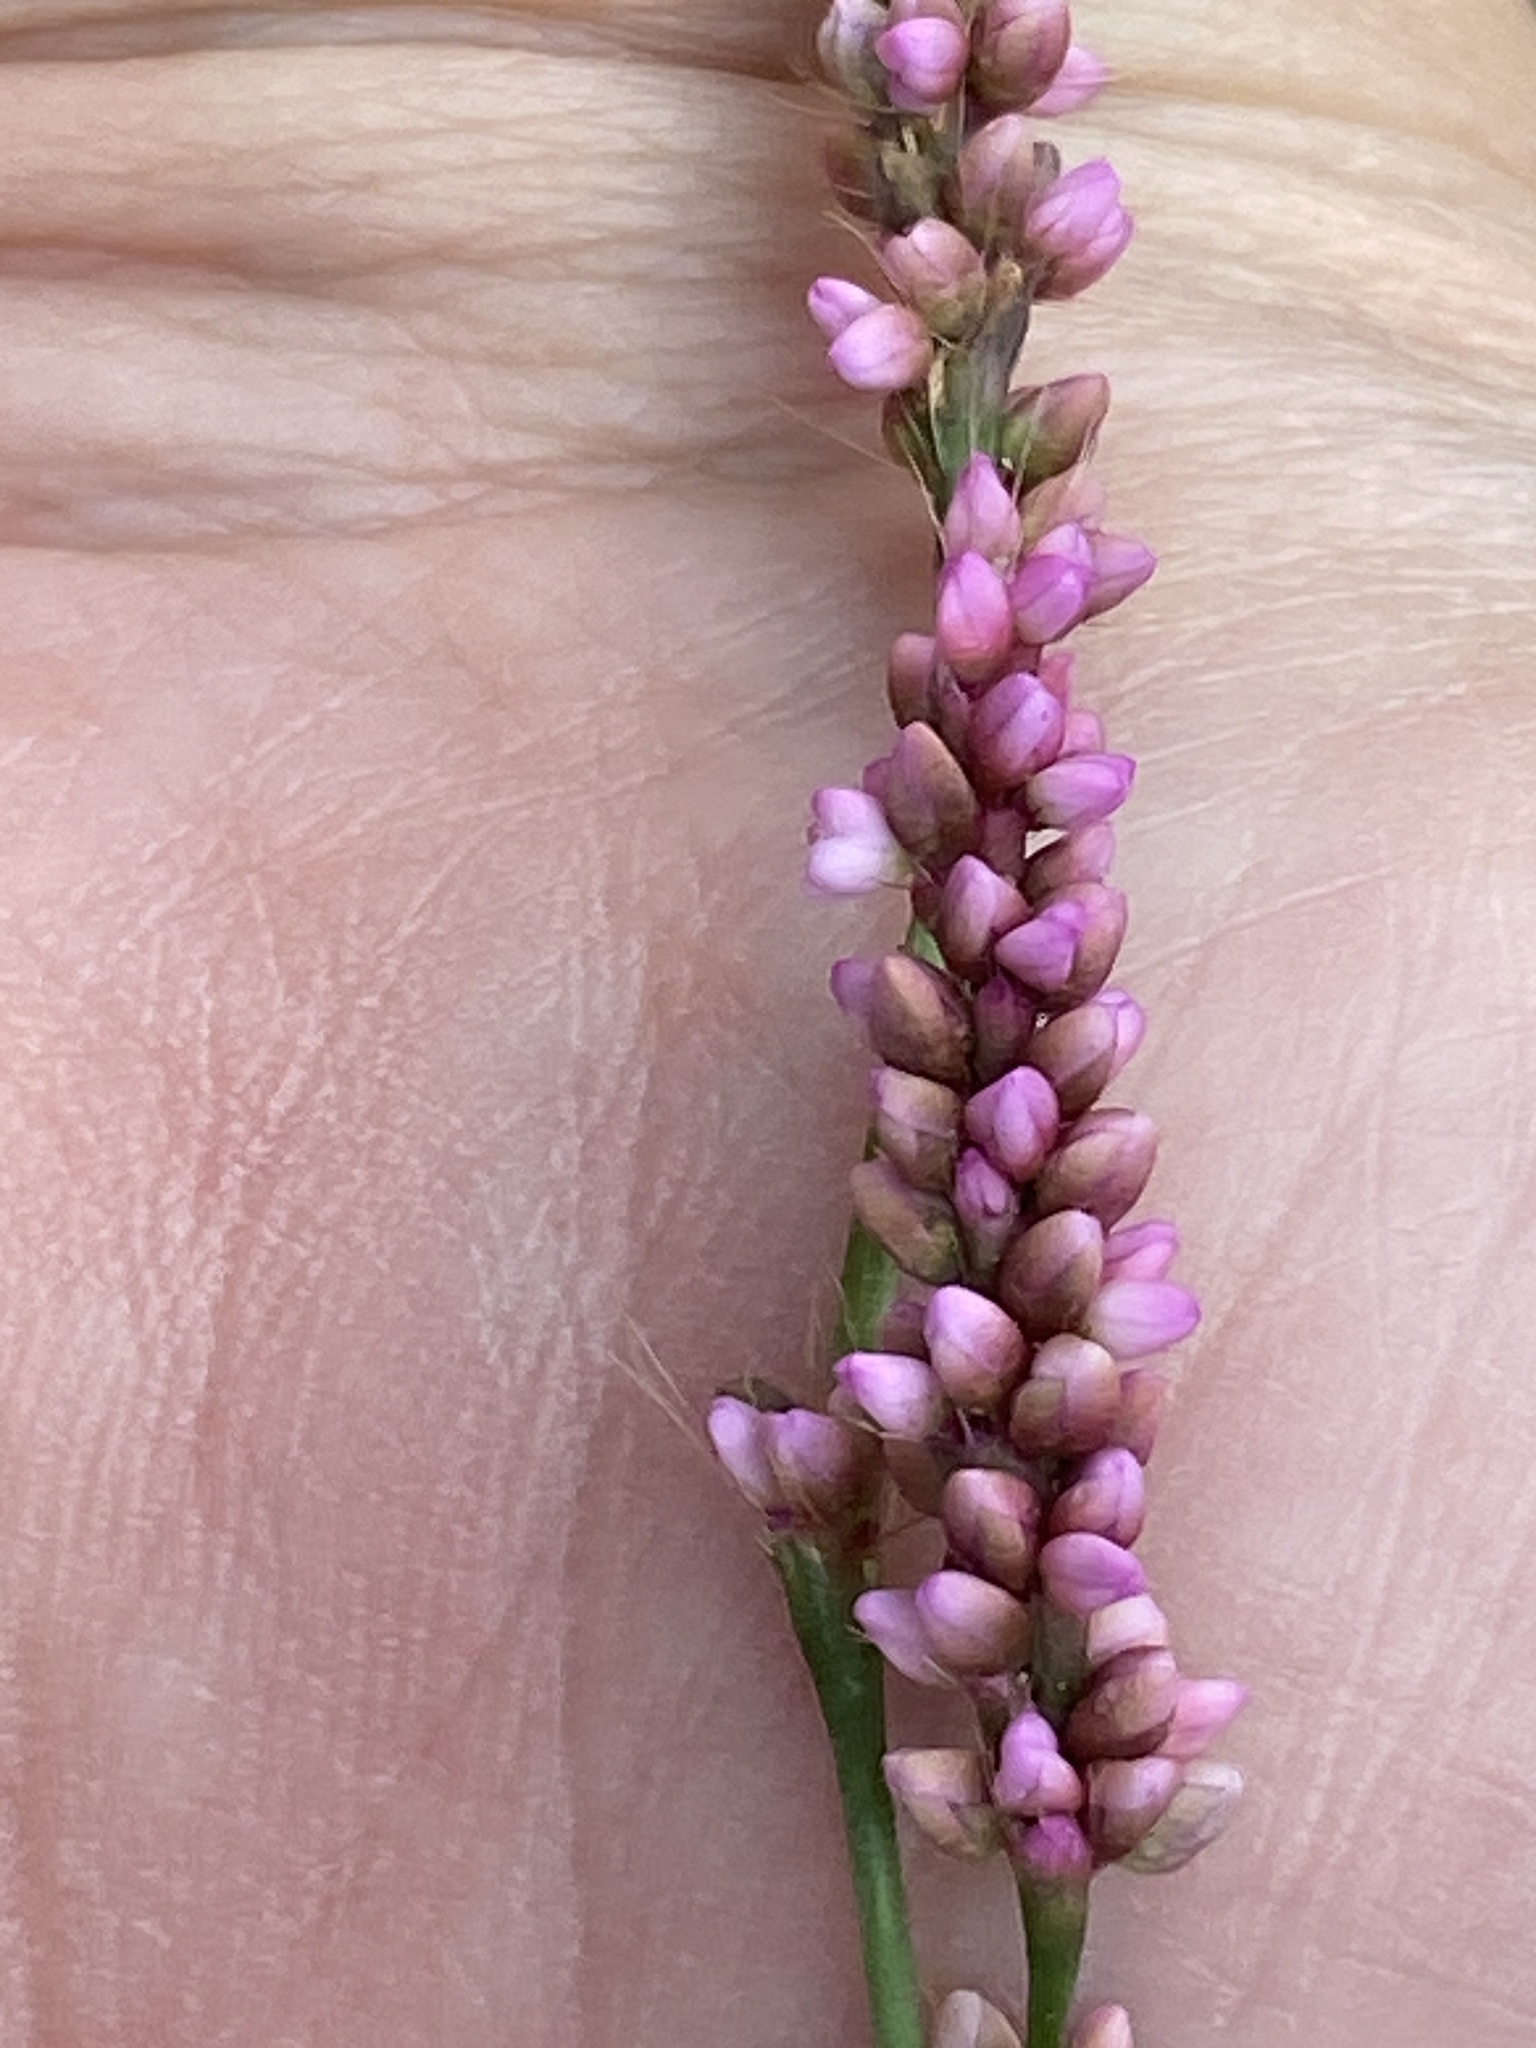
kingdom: Plantae
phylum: Tracheophyta
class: Magnoliopsida
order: Caryophyllales
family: Polygonaceae
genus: Persicaria
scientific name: Persicaria longiseta
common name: Bristly lady's-thumb
